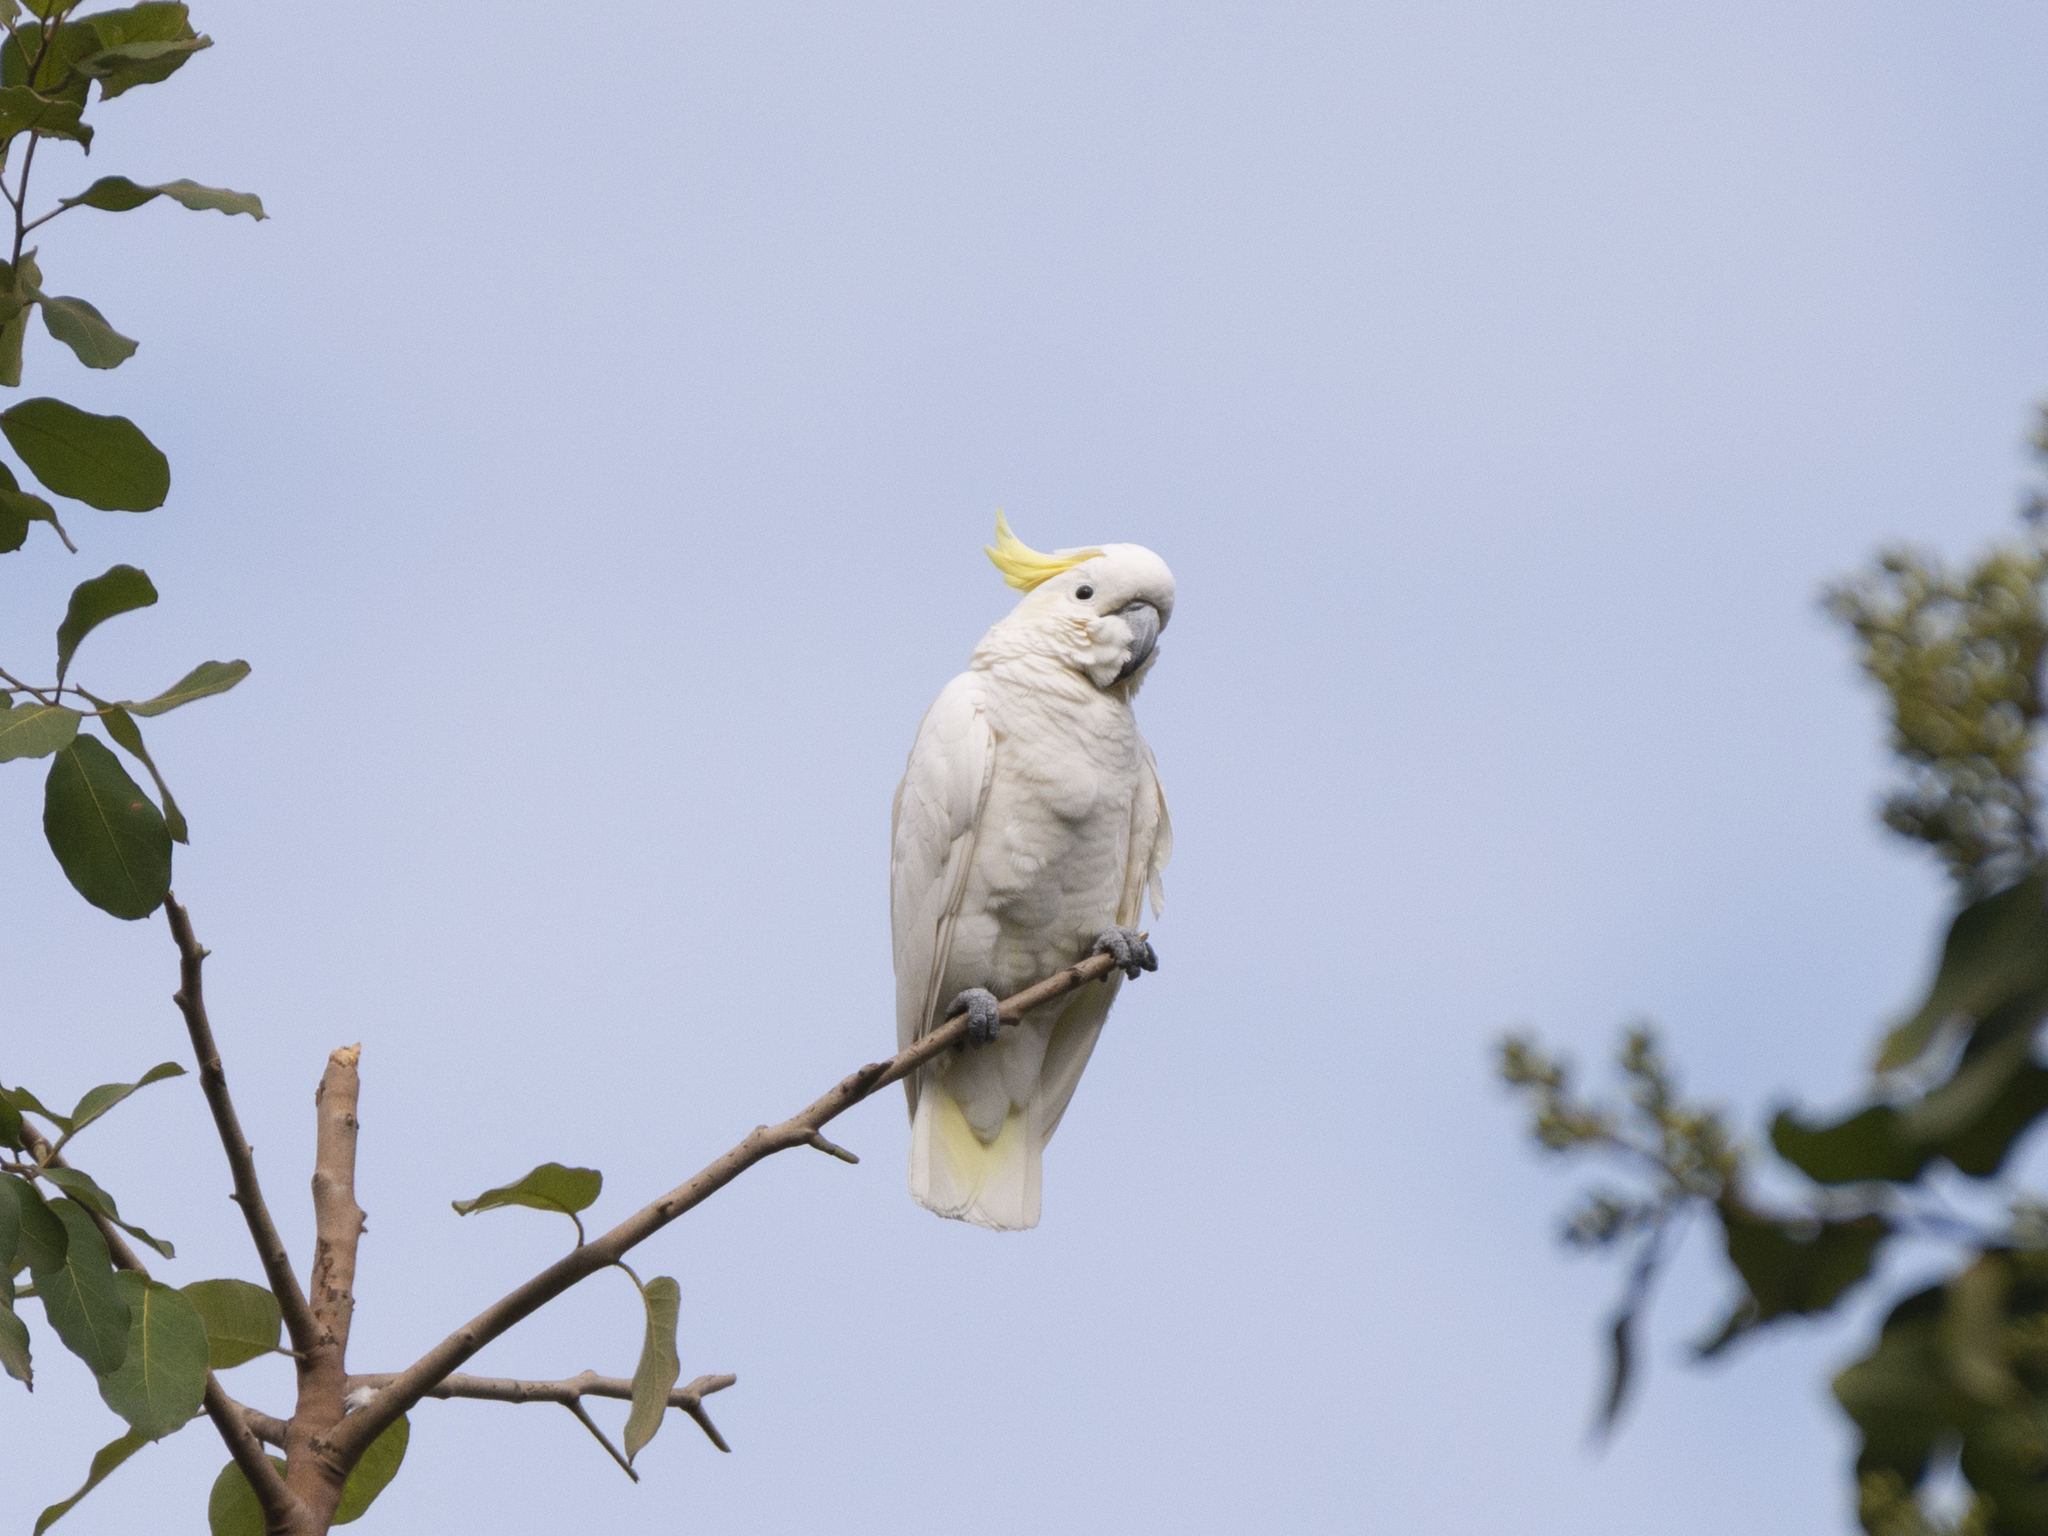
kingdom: Animalia
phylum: Chordata
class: Aves
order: Psittaciformes
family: Psittacidae
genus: Cacatua
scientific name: Cacatua sulphurea
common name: Yellow-crested cockatoo
